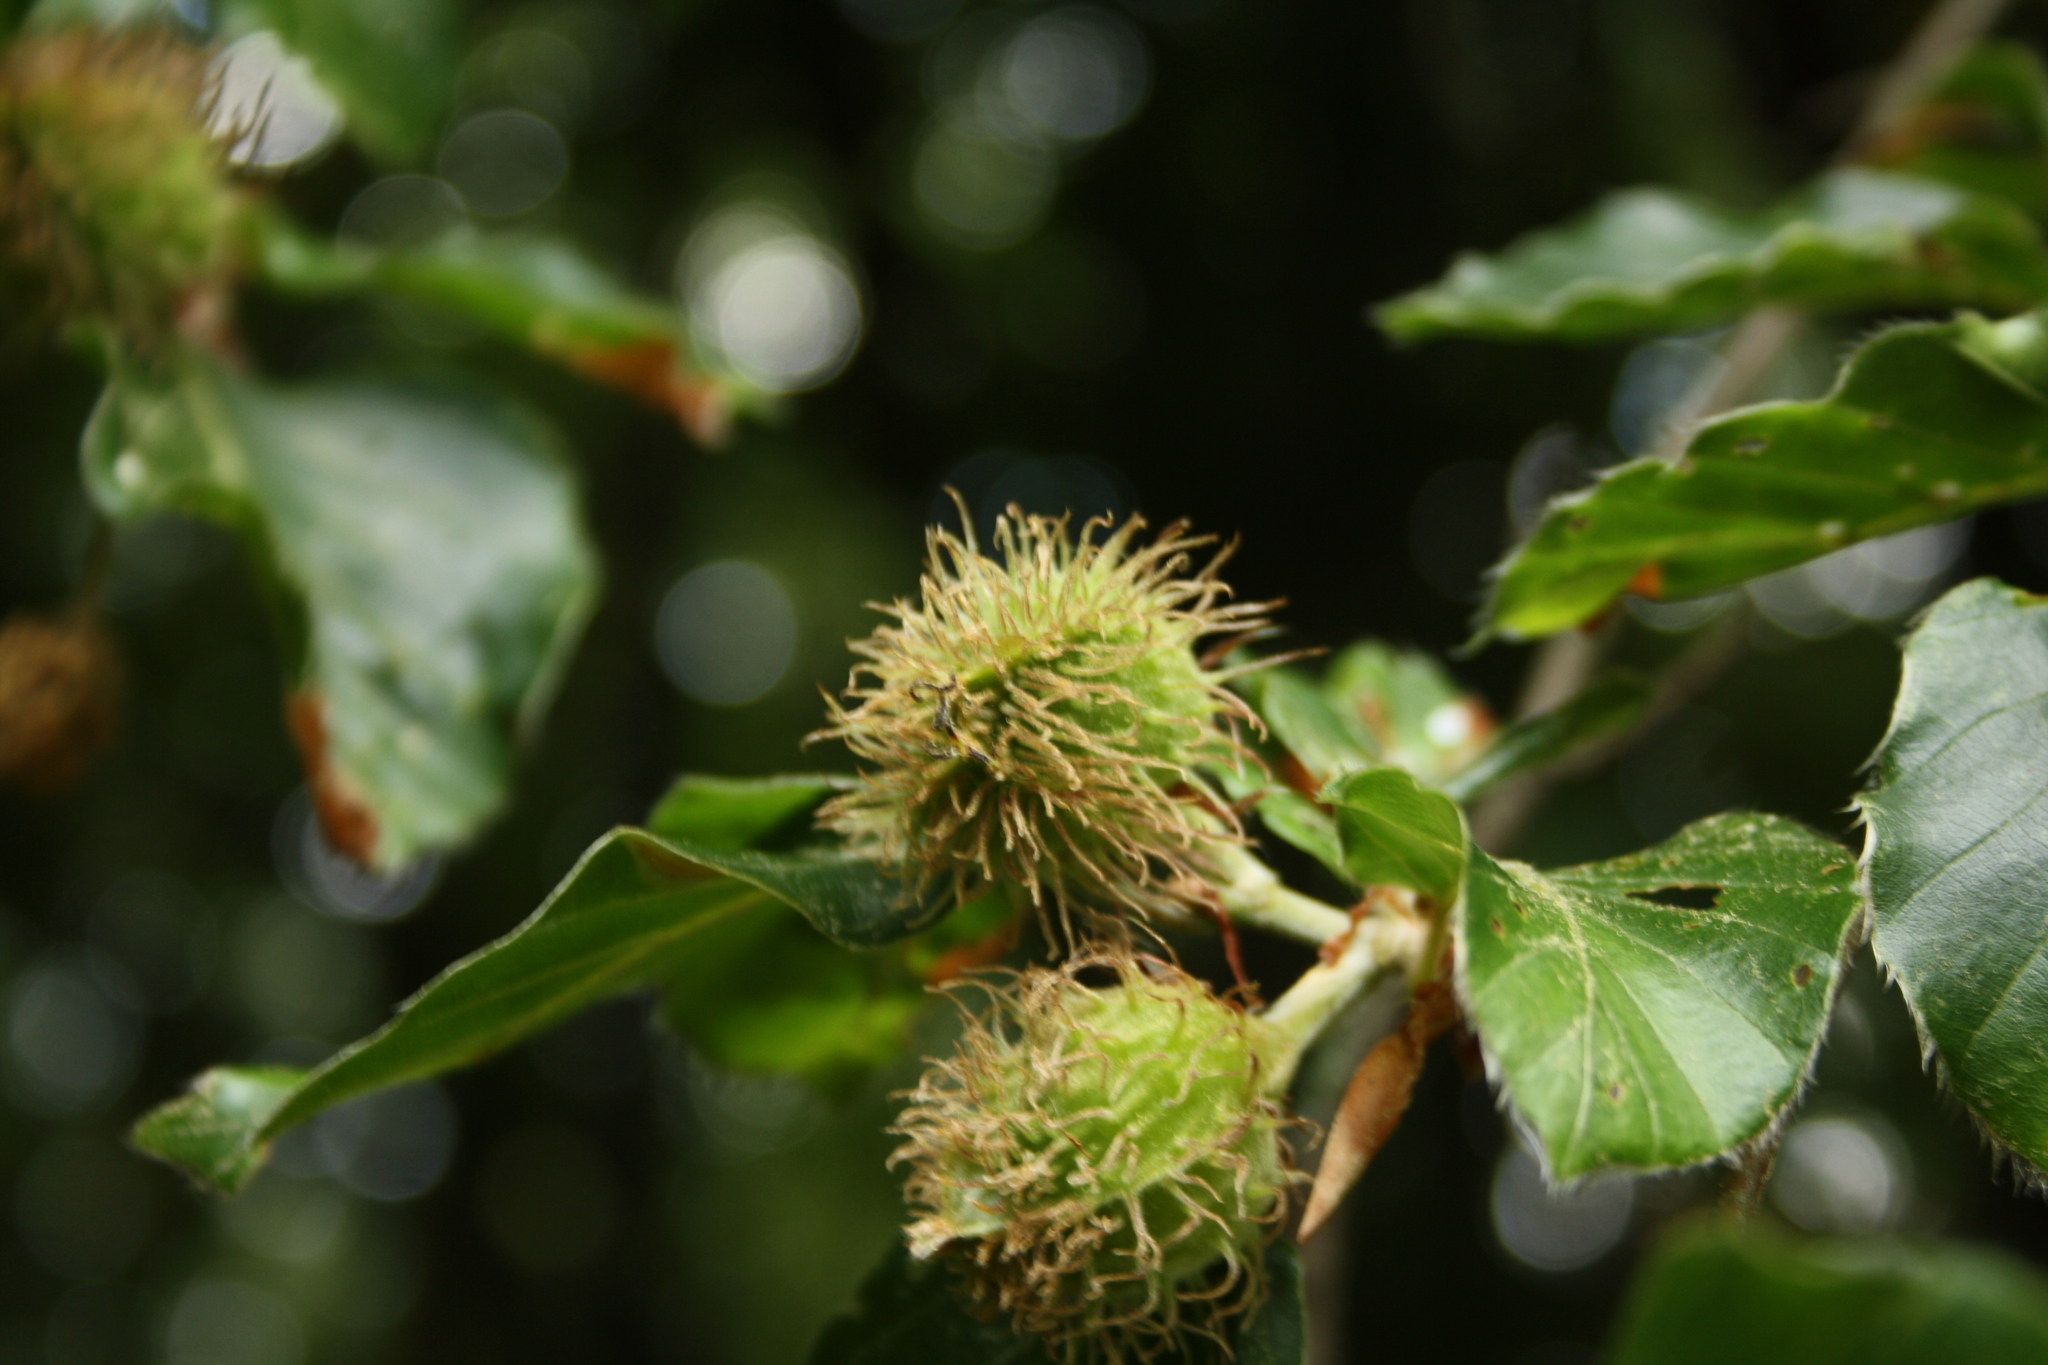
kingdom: Plantae
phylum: Tracheophyta
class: Magnoliopsida
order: Fagales
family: Fagaceae
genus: Fagus
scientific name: Fagus sylvatica
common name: Beech
